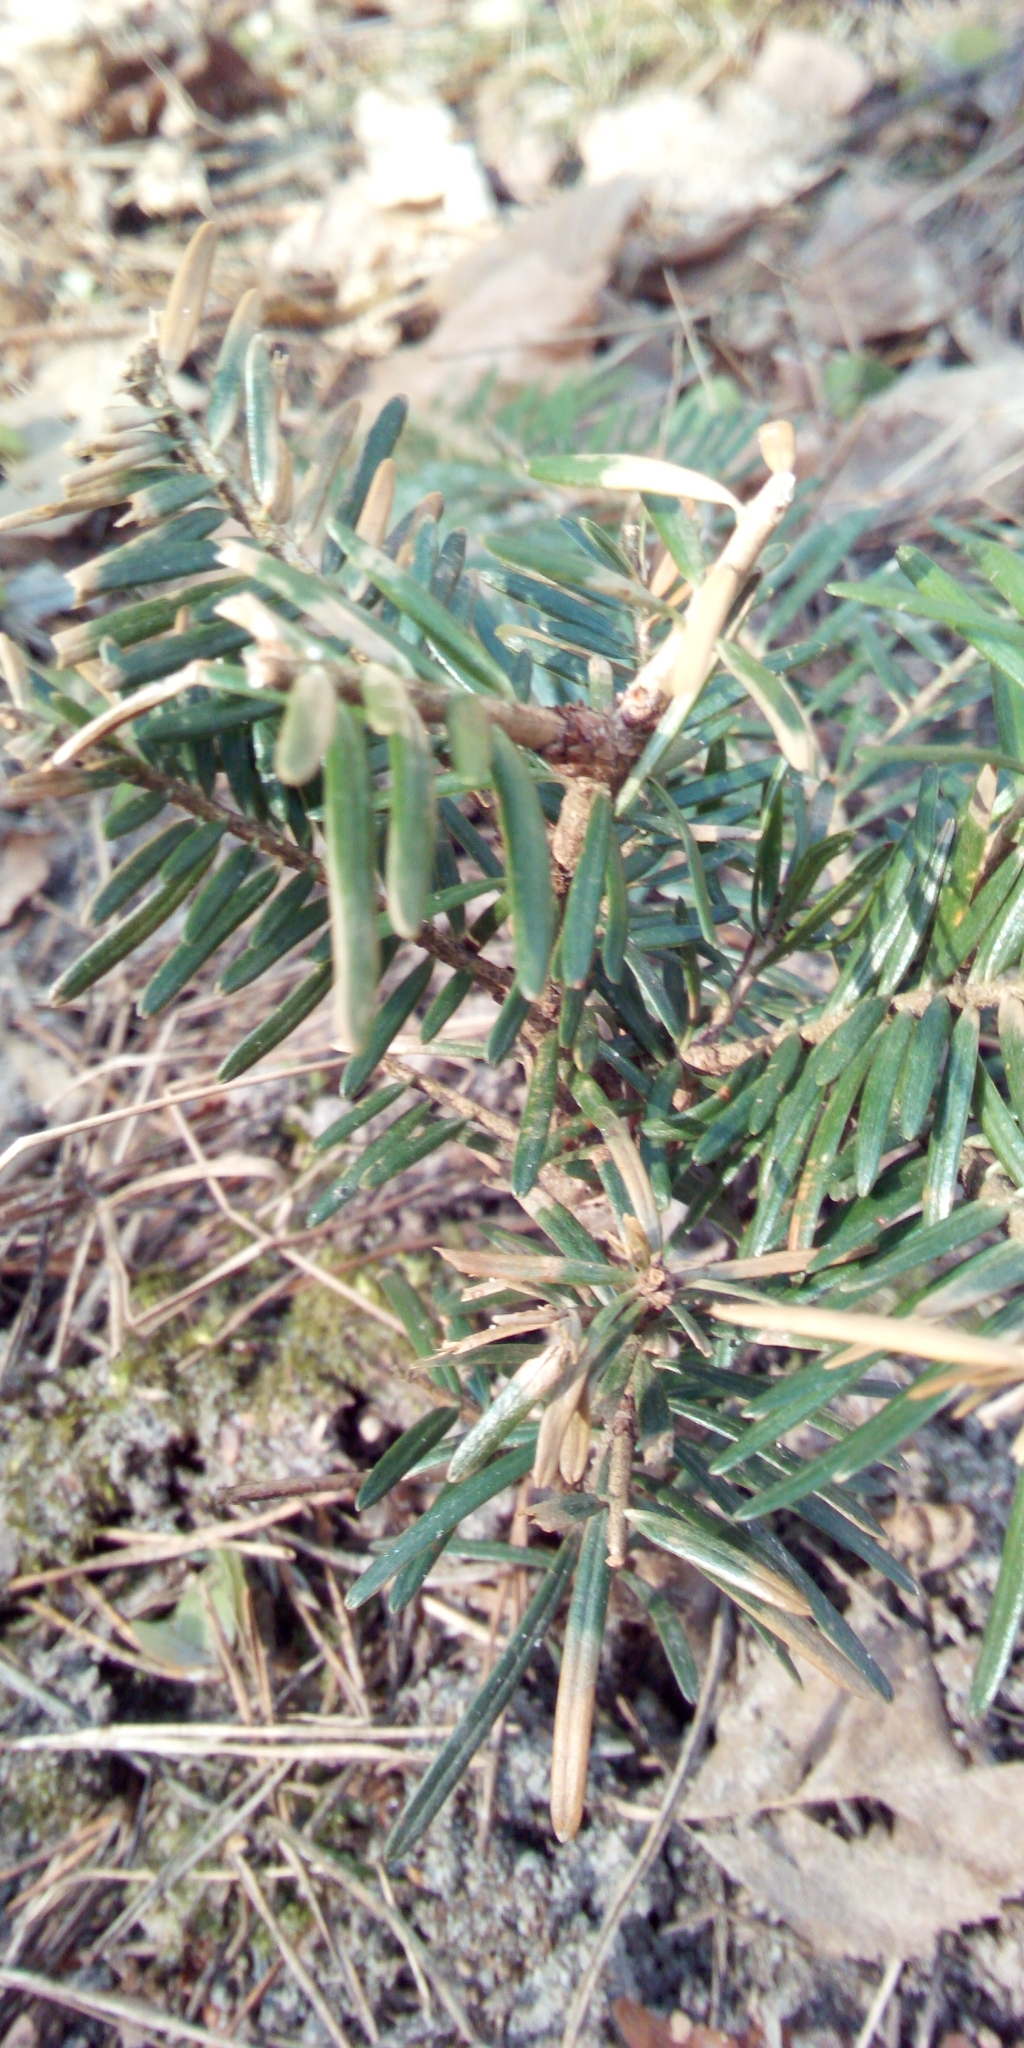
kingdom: Plantae
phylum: Tracheophyta
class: Pinopsida
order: Pinales
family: Pinaceae
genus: Abies
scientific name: Abies alba
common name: Silver fir
